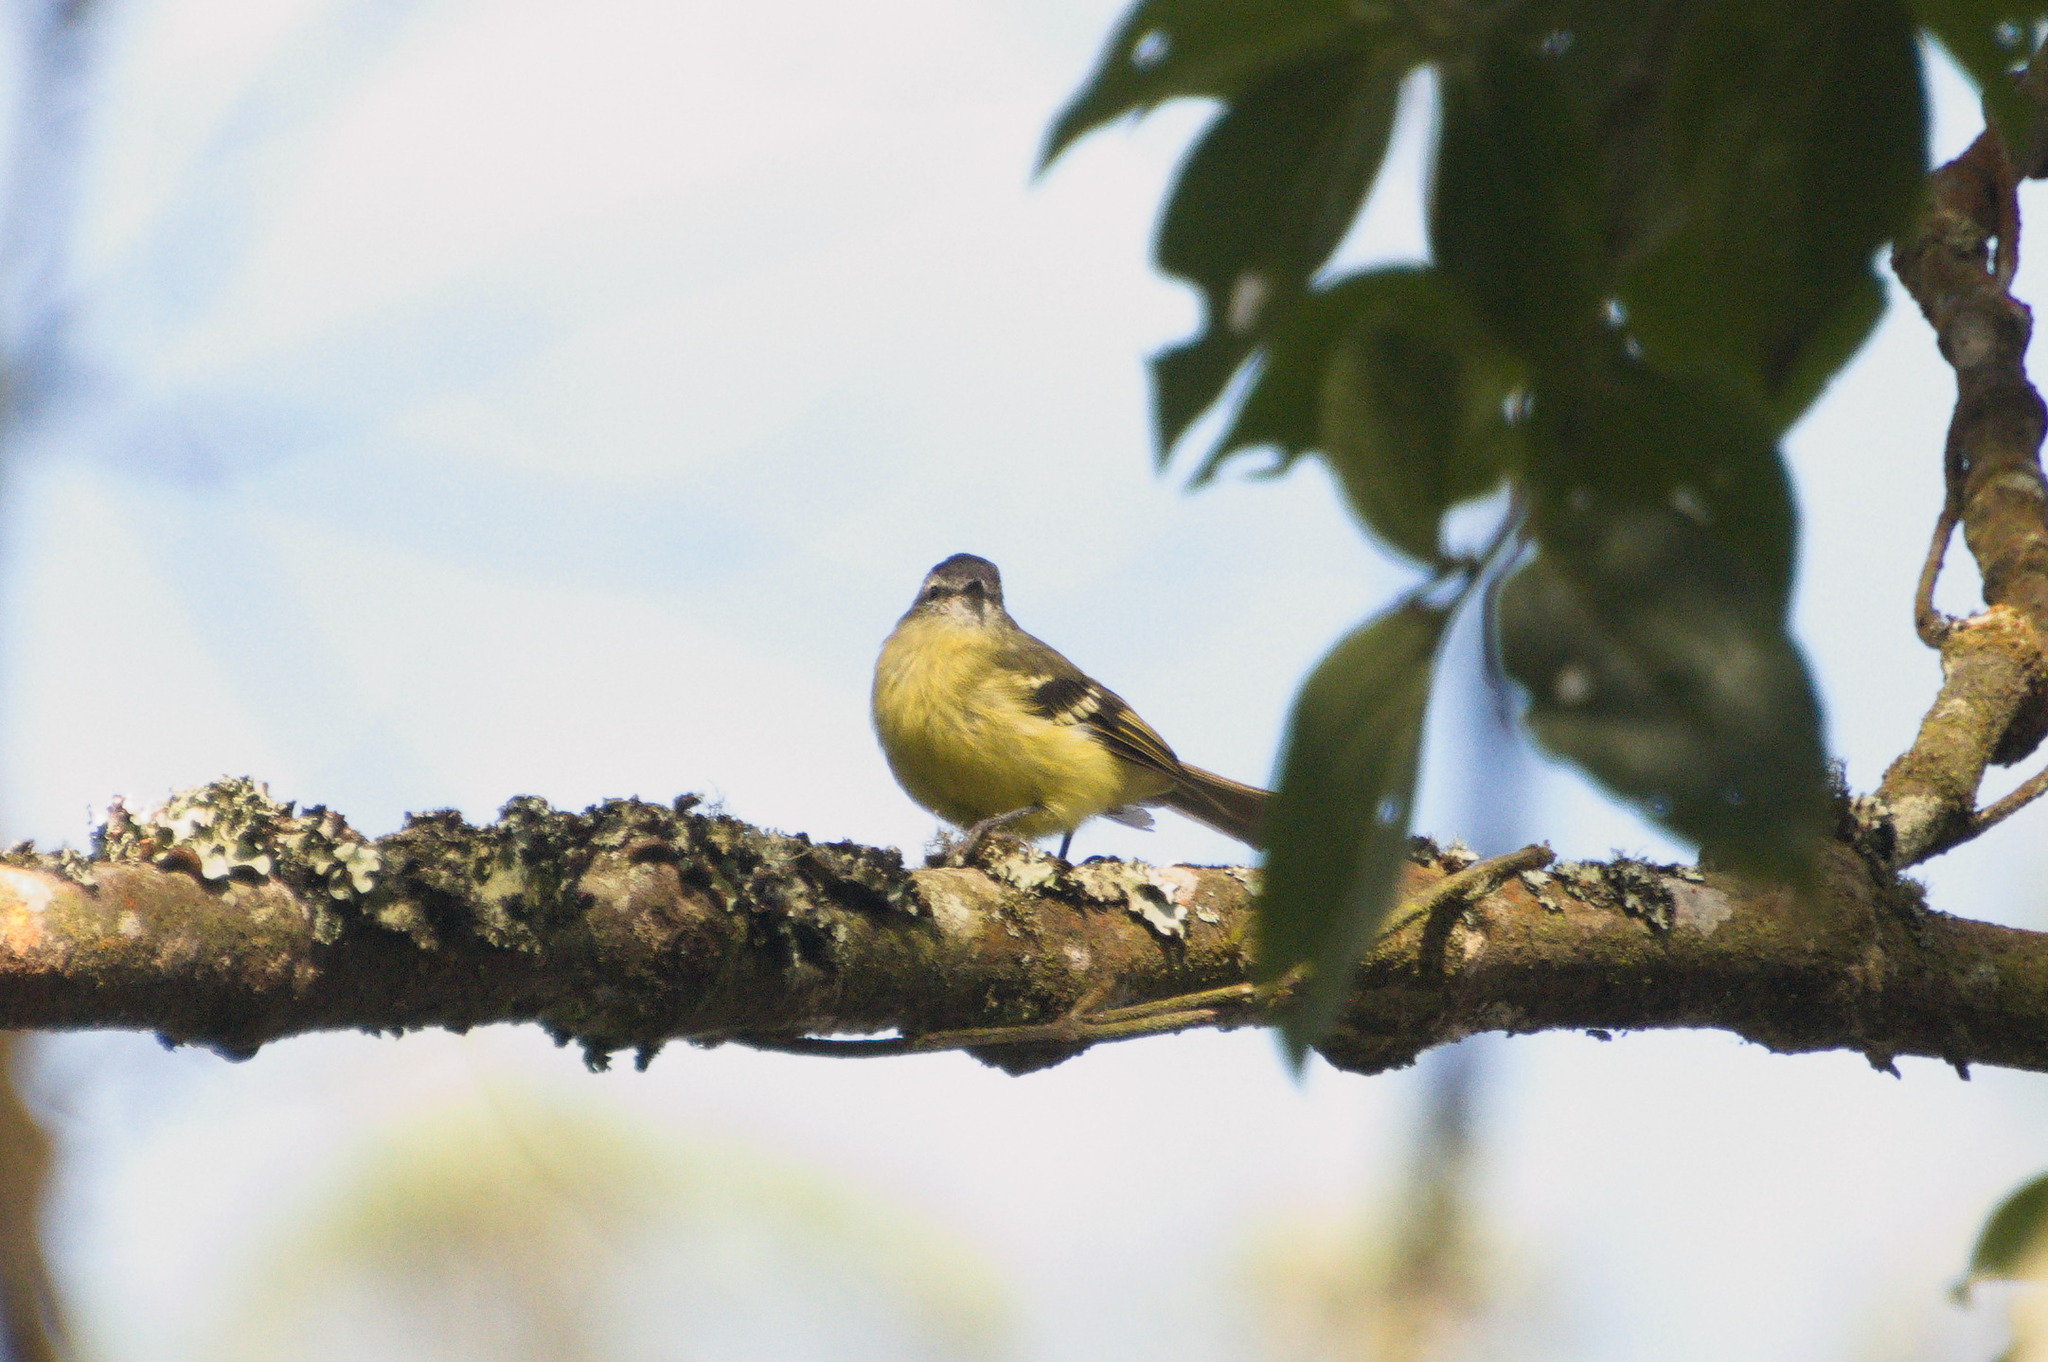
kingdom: Animalia
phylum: Chordata
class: Aves
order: Passeriformes
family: Tyrannidae
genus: Phyllomyias
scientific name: Phyllomyias nigrocapillus
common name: Black-capped tyrannulet
